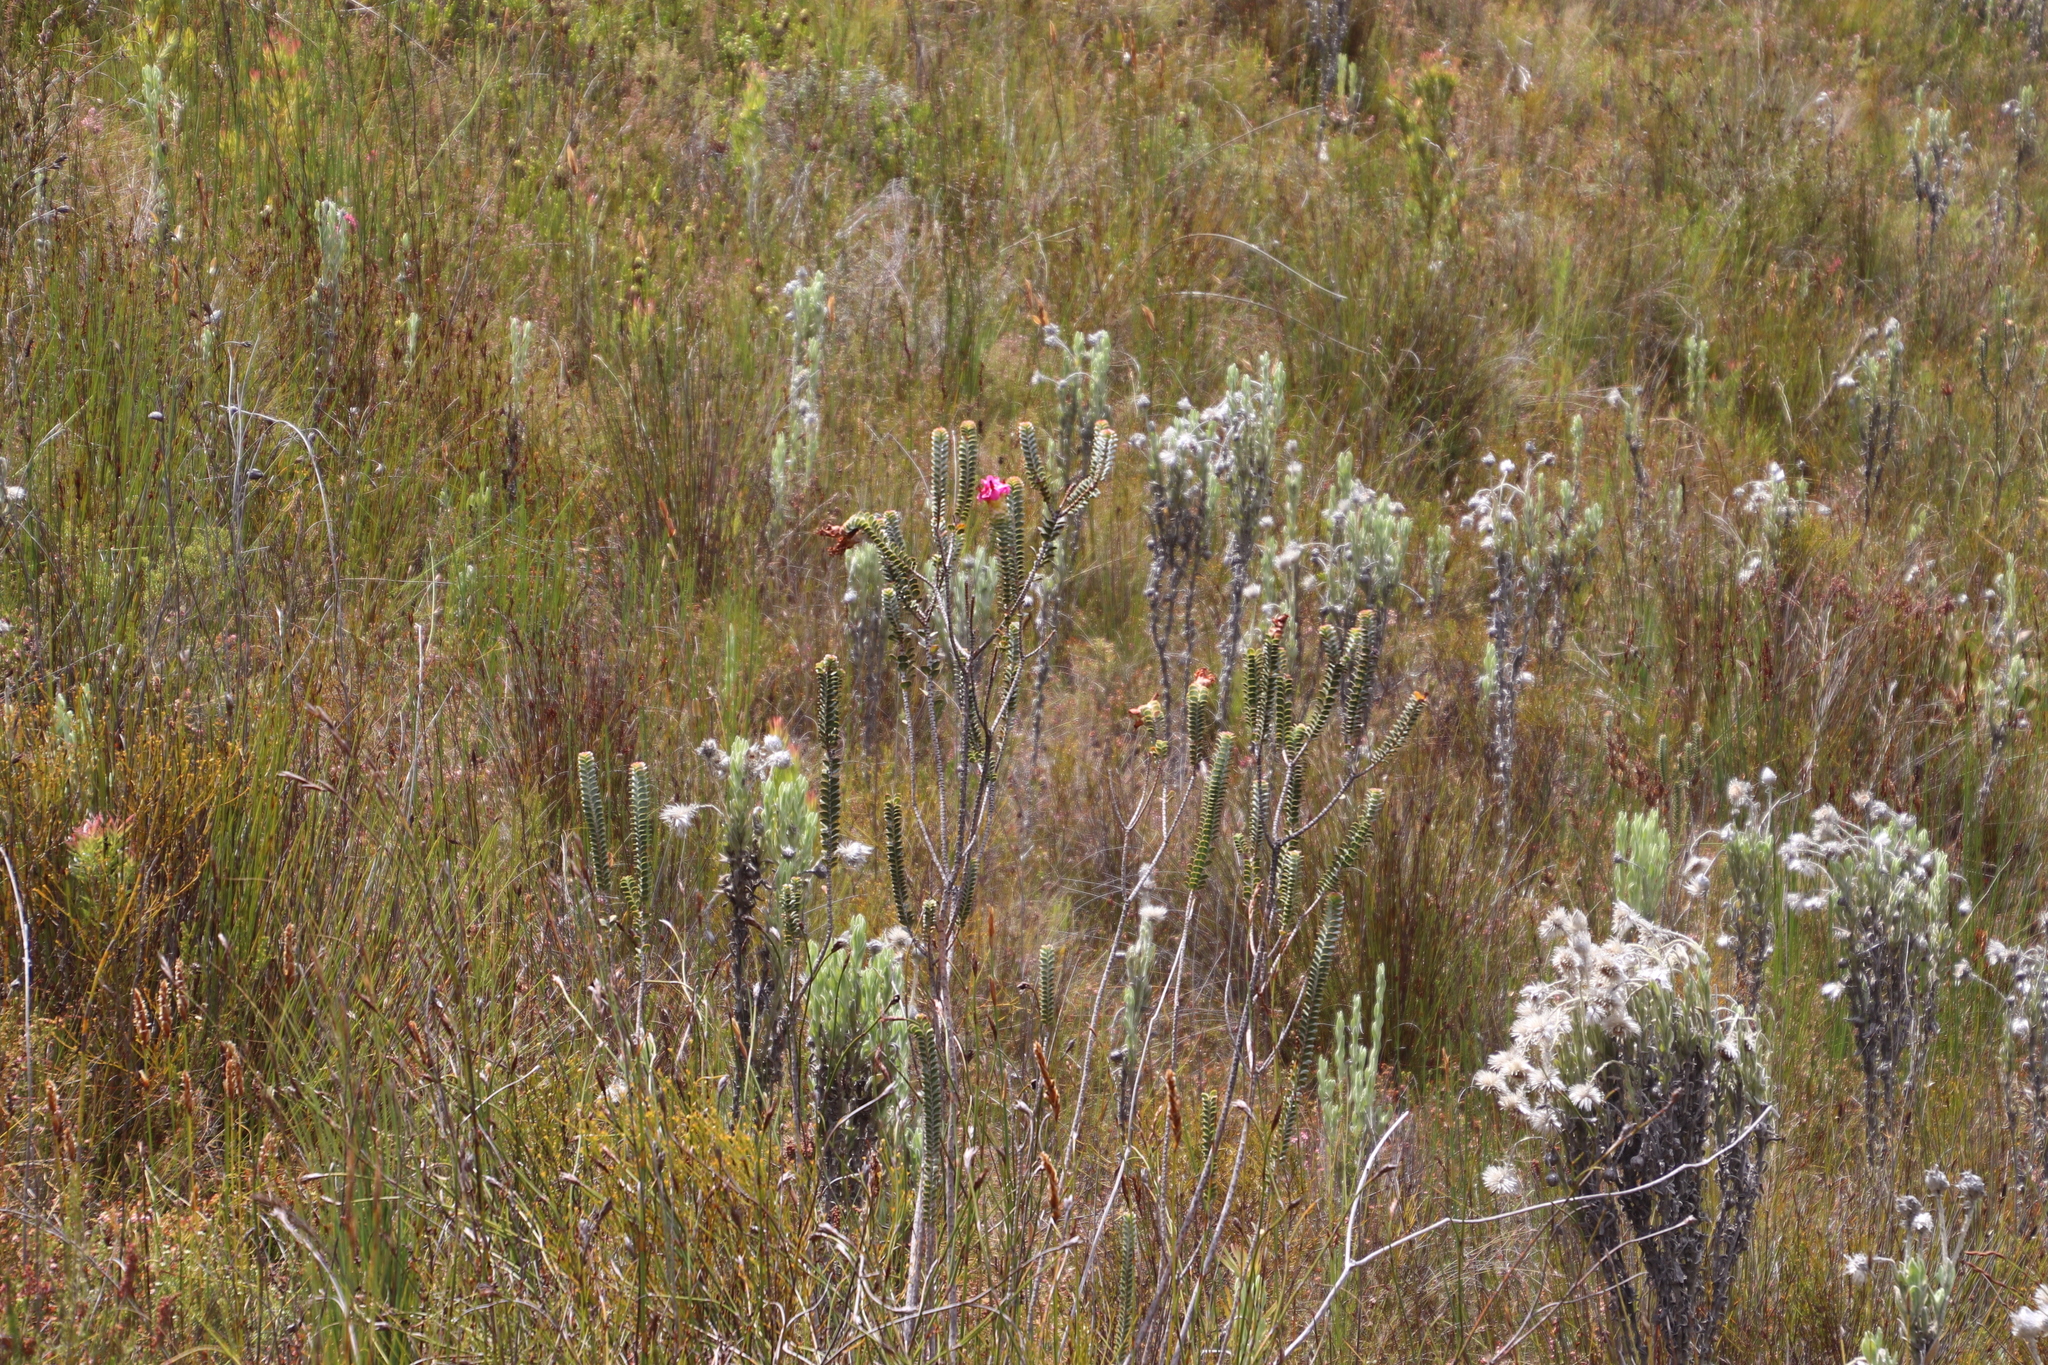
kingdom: Plantae
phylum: Tracheophyta
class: Magnoliopsida
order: Myrtales
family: Penaeaceae
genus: Saltera
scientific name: Saltera sarcocolla
